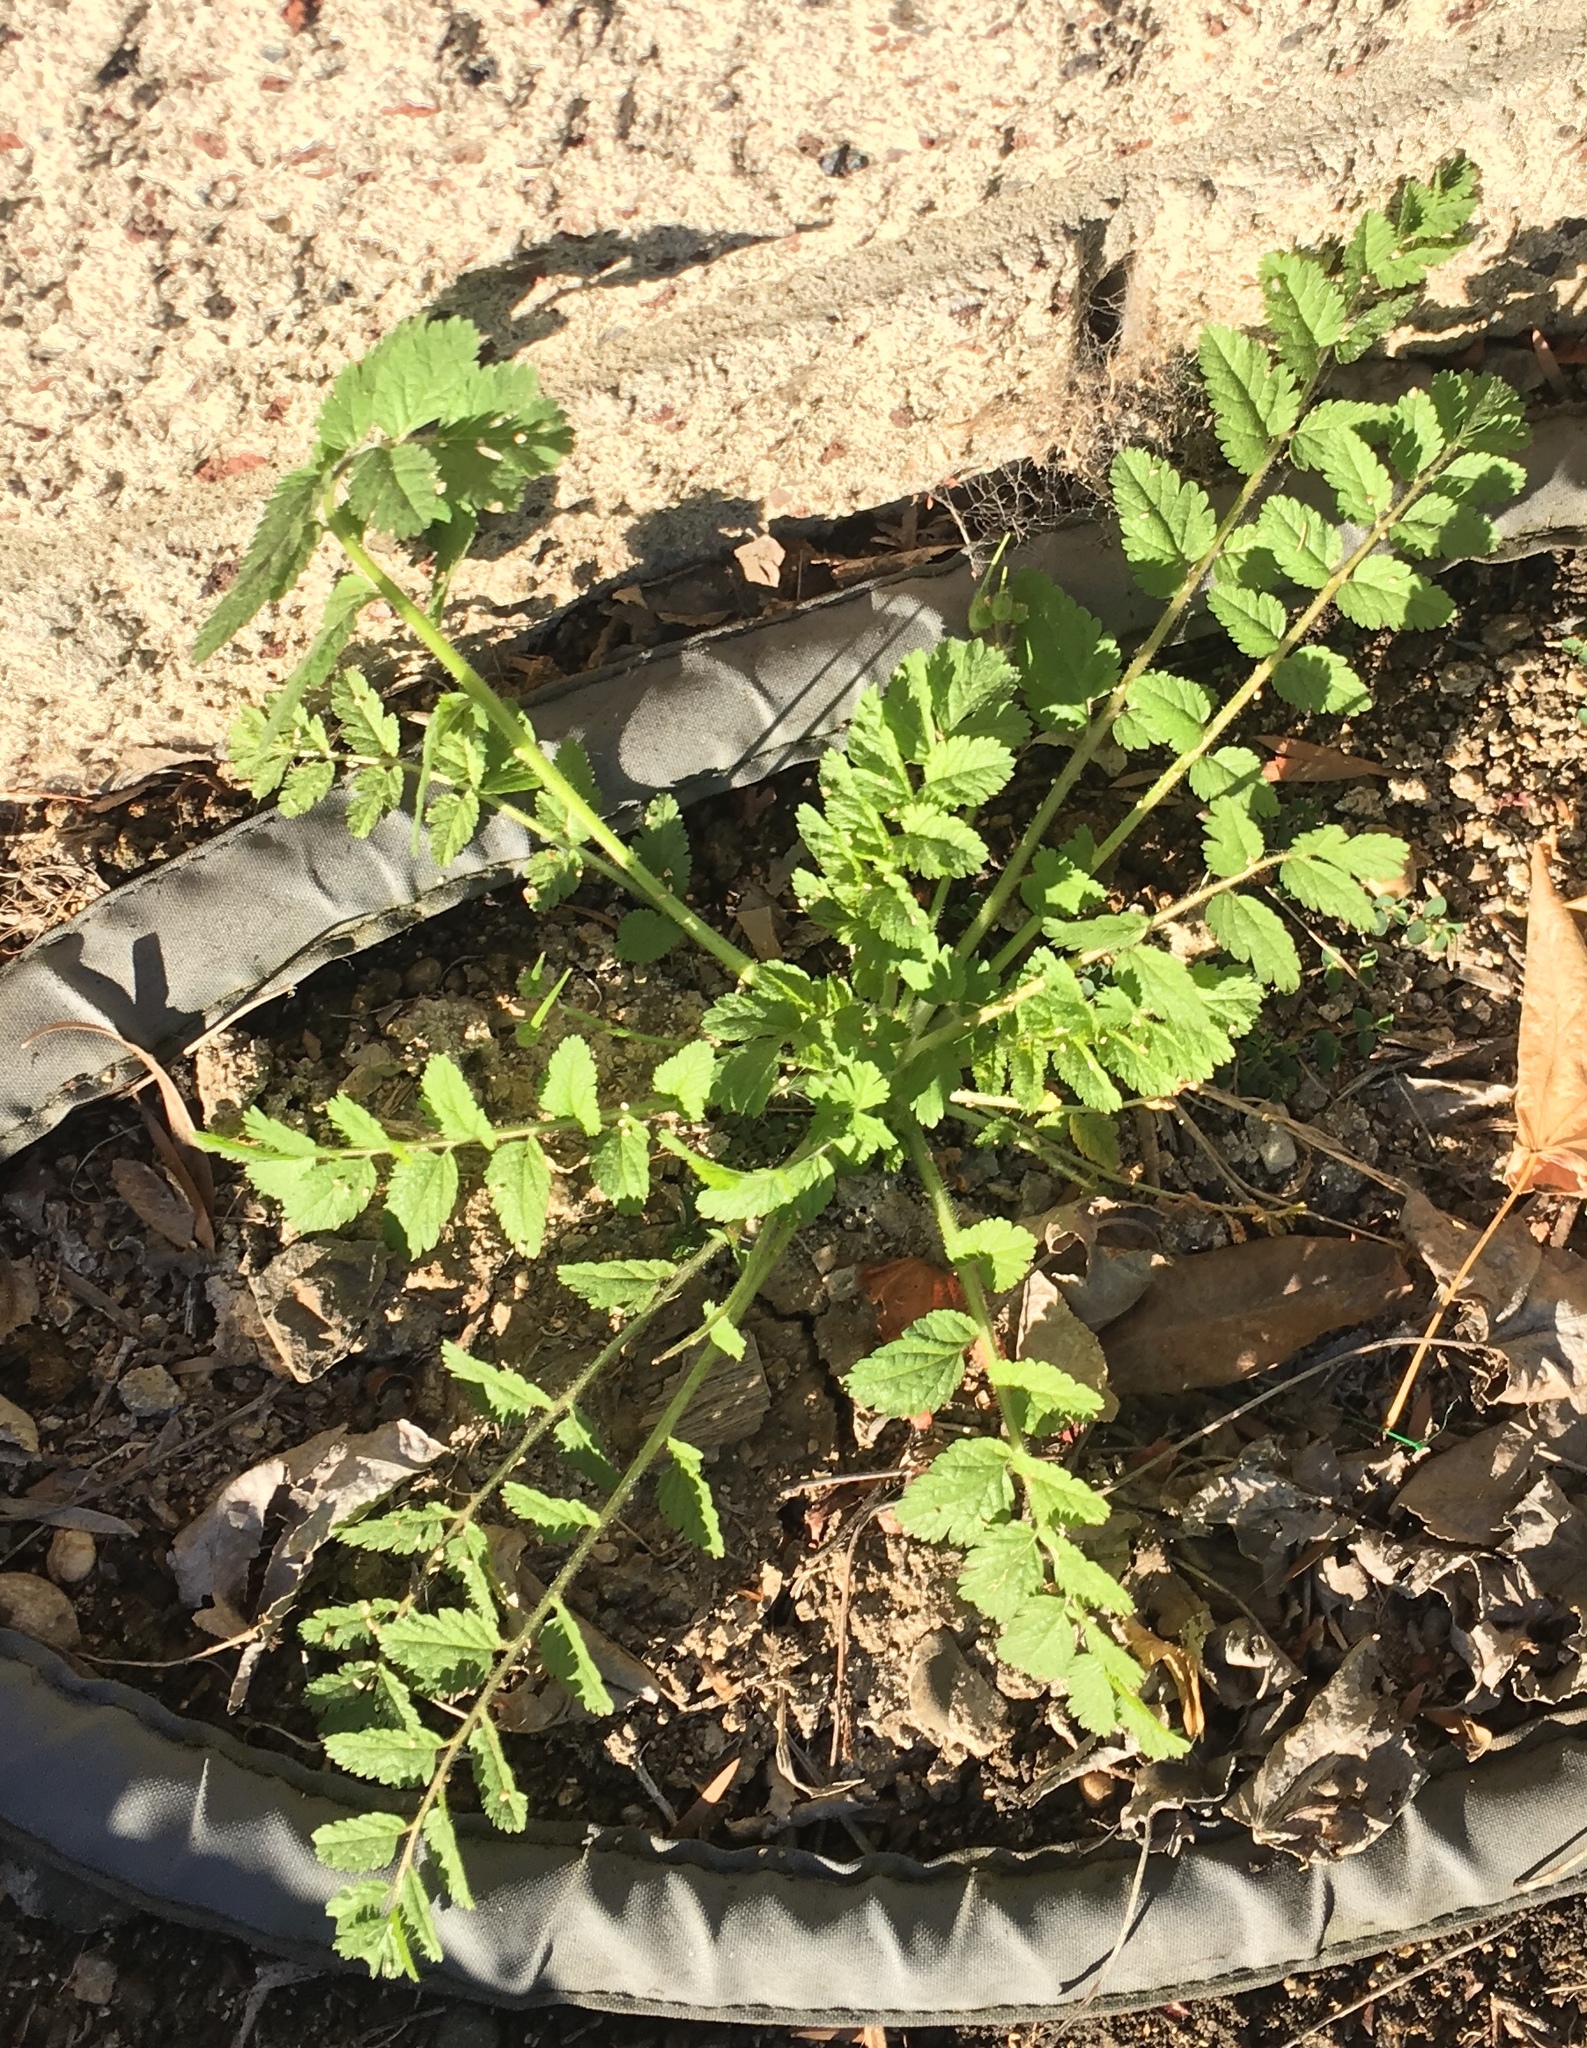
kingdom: Plantae
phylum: Tracheophyta
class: Magnoliopsida
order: Geraniales
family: Geraniaceae
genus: Erodium
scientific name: Erodium moschatum
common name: Musk stork's-bill
